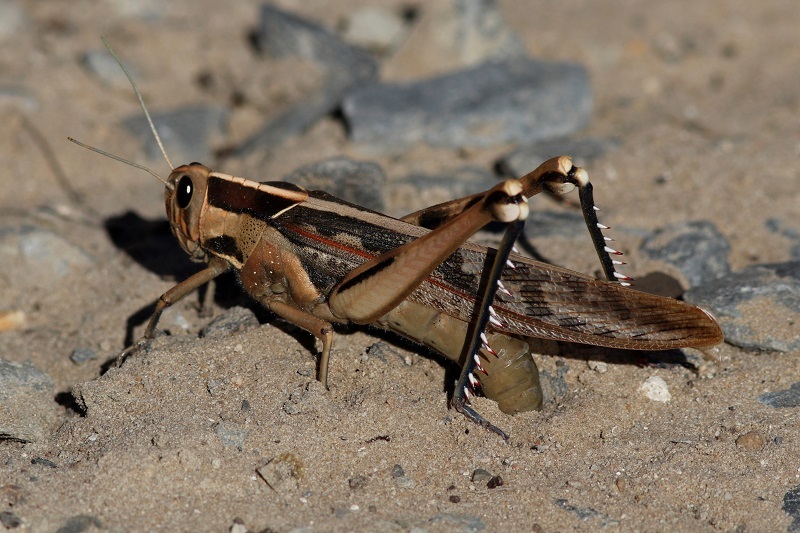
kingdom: Animalia
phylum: Arthropoda
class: Insecta
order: Orthoptera
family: Acrididae
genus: Acanthacris
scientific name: Acanthacris ruficornis
